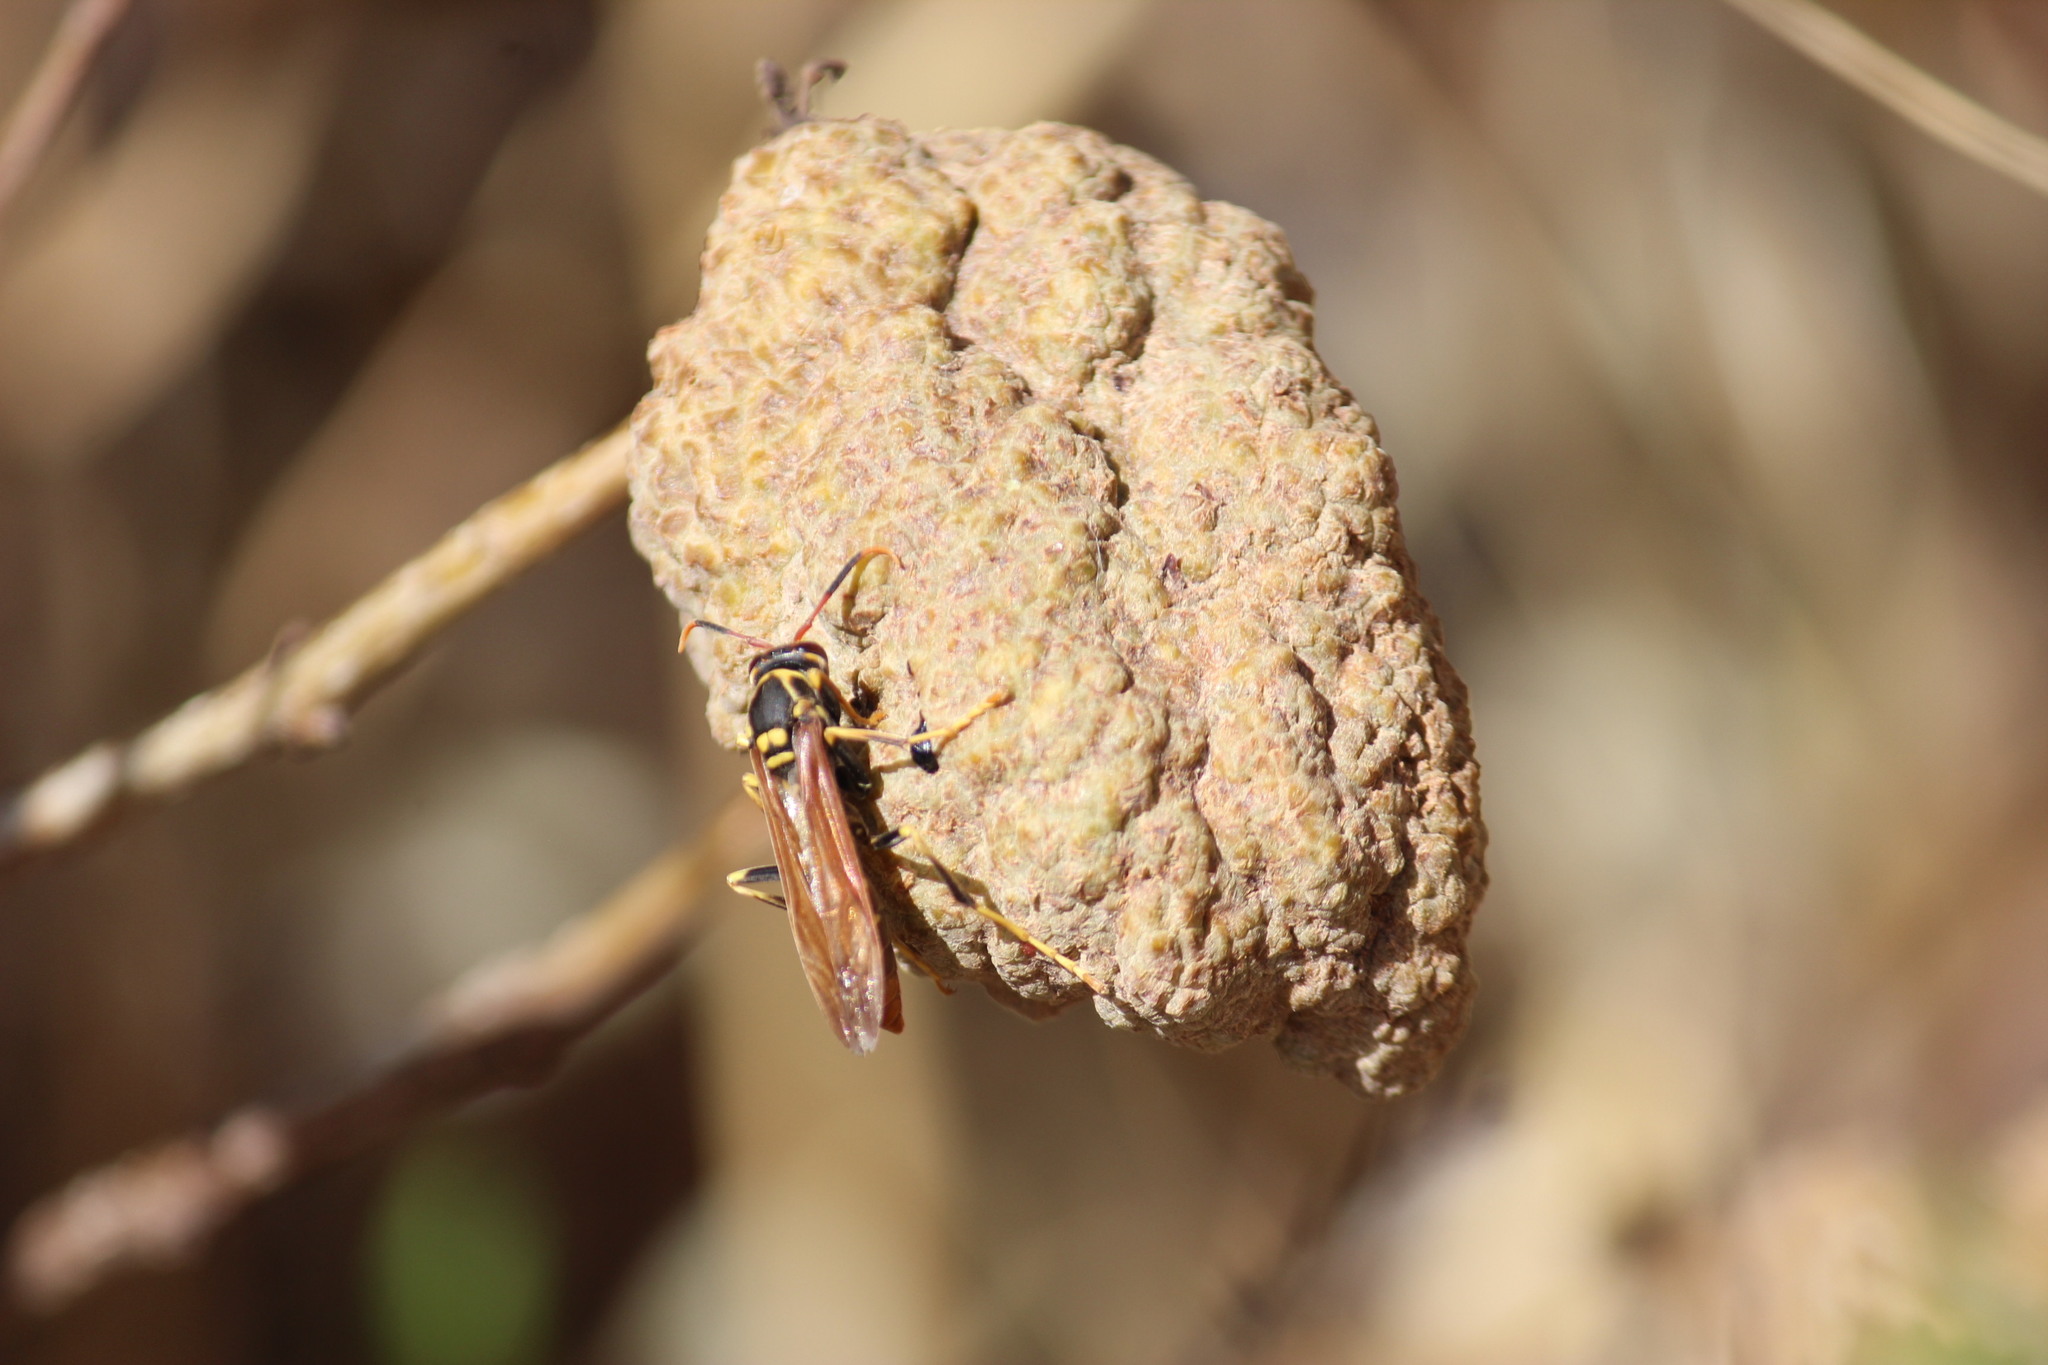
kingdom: Animalia
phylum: Arthropoda
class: Insecta
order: Hymenoptera
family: Eumenidae
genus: Polistes
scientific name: Polistes peruvianus
